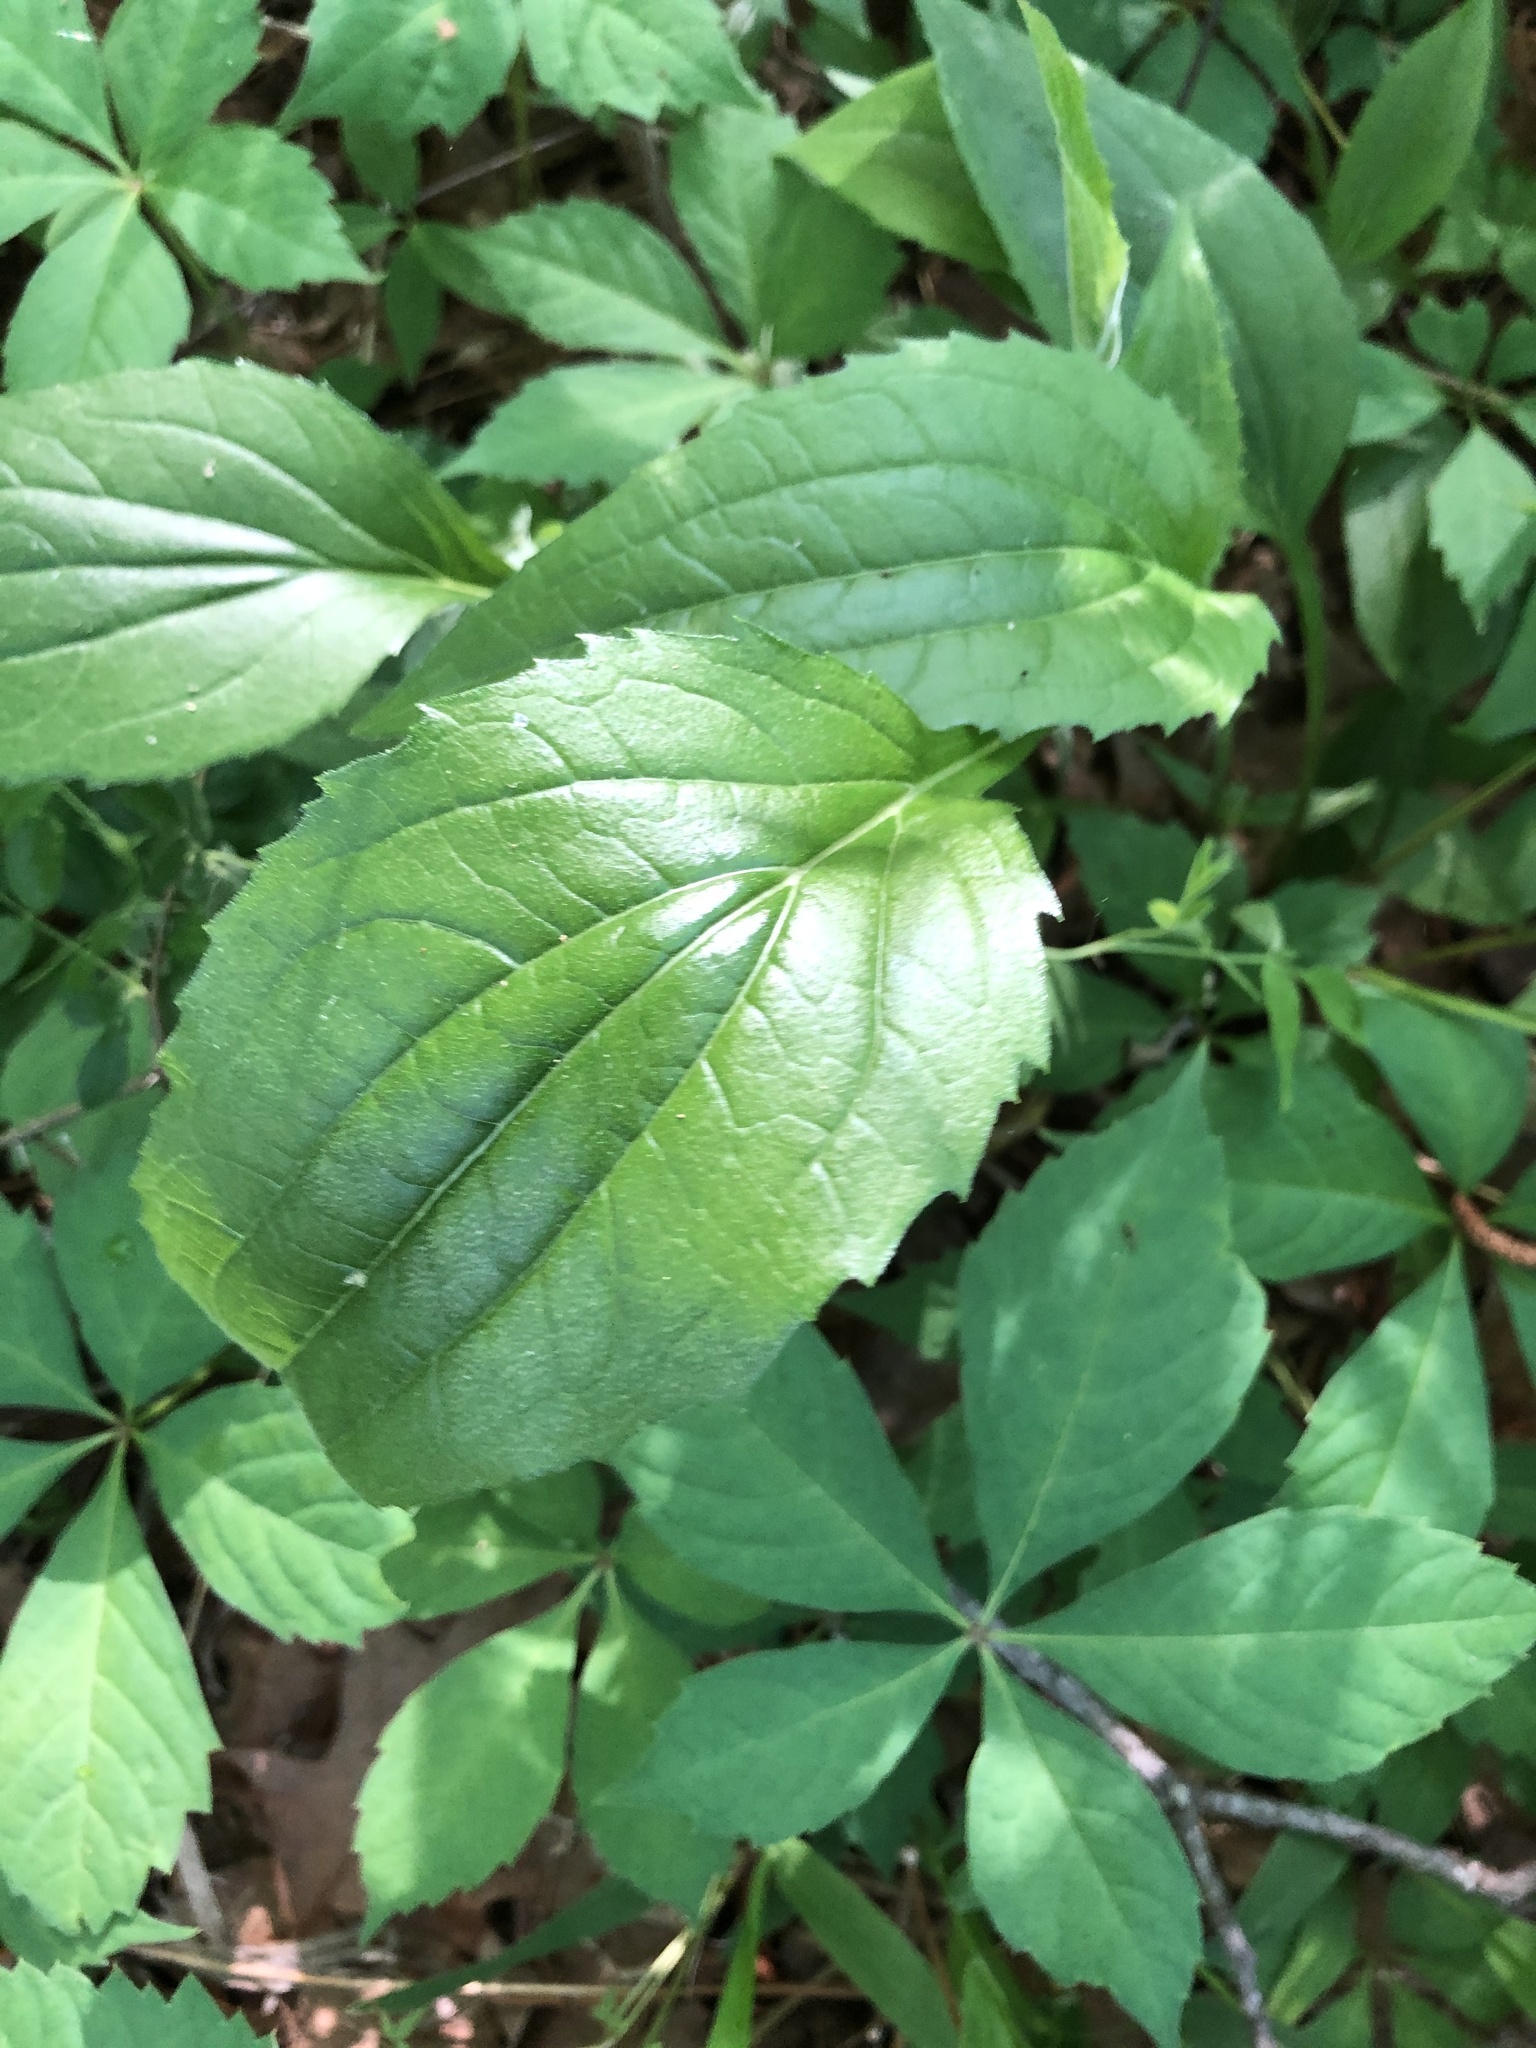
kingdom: Plantae
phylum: Tracheophyta
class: Magnoliopsida
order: Asterales
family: Asteraceae
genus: Echinacea
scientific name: Echinacea purpurea
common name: Broad-leaved purple coneflower
